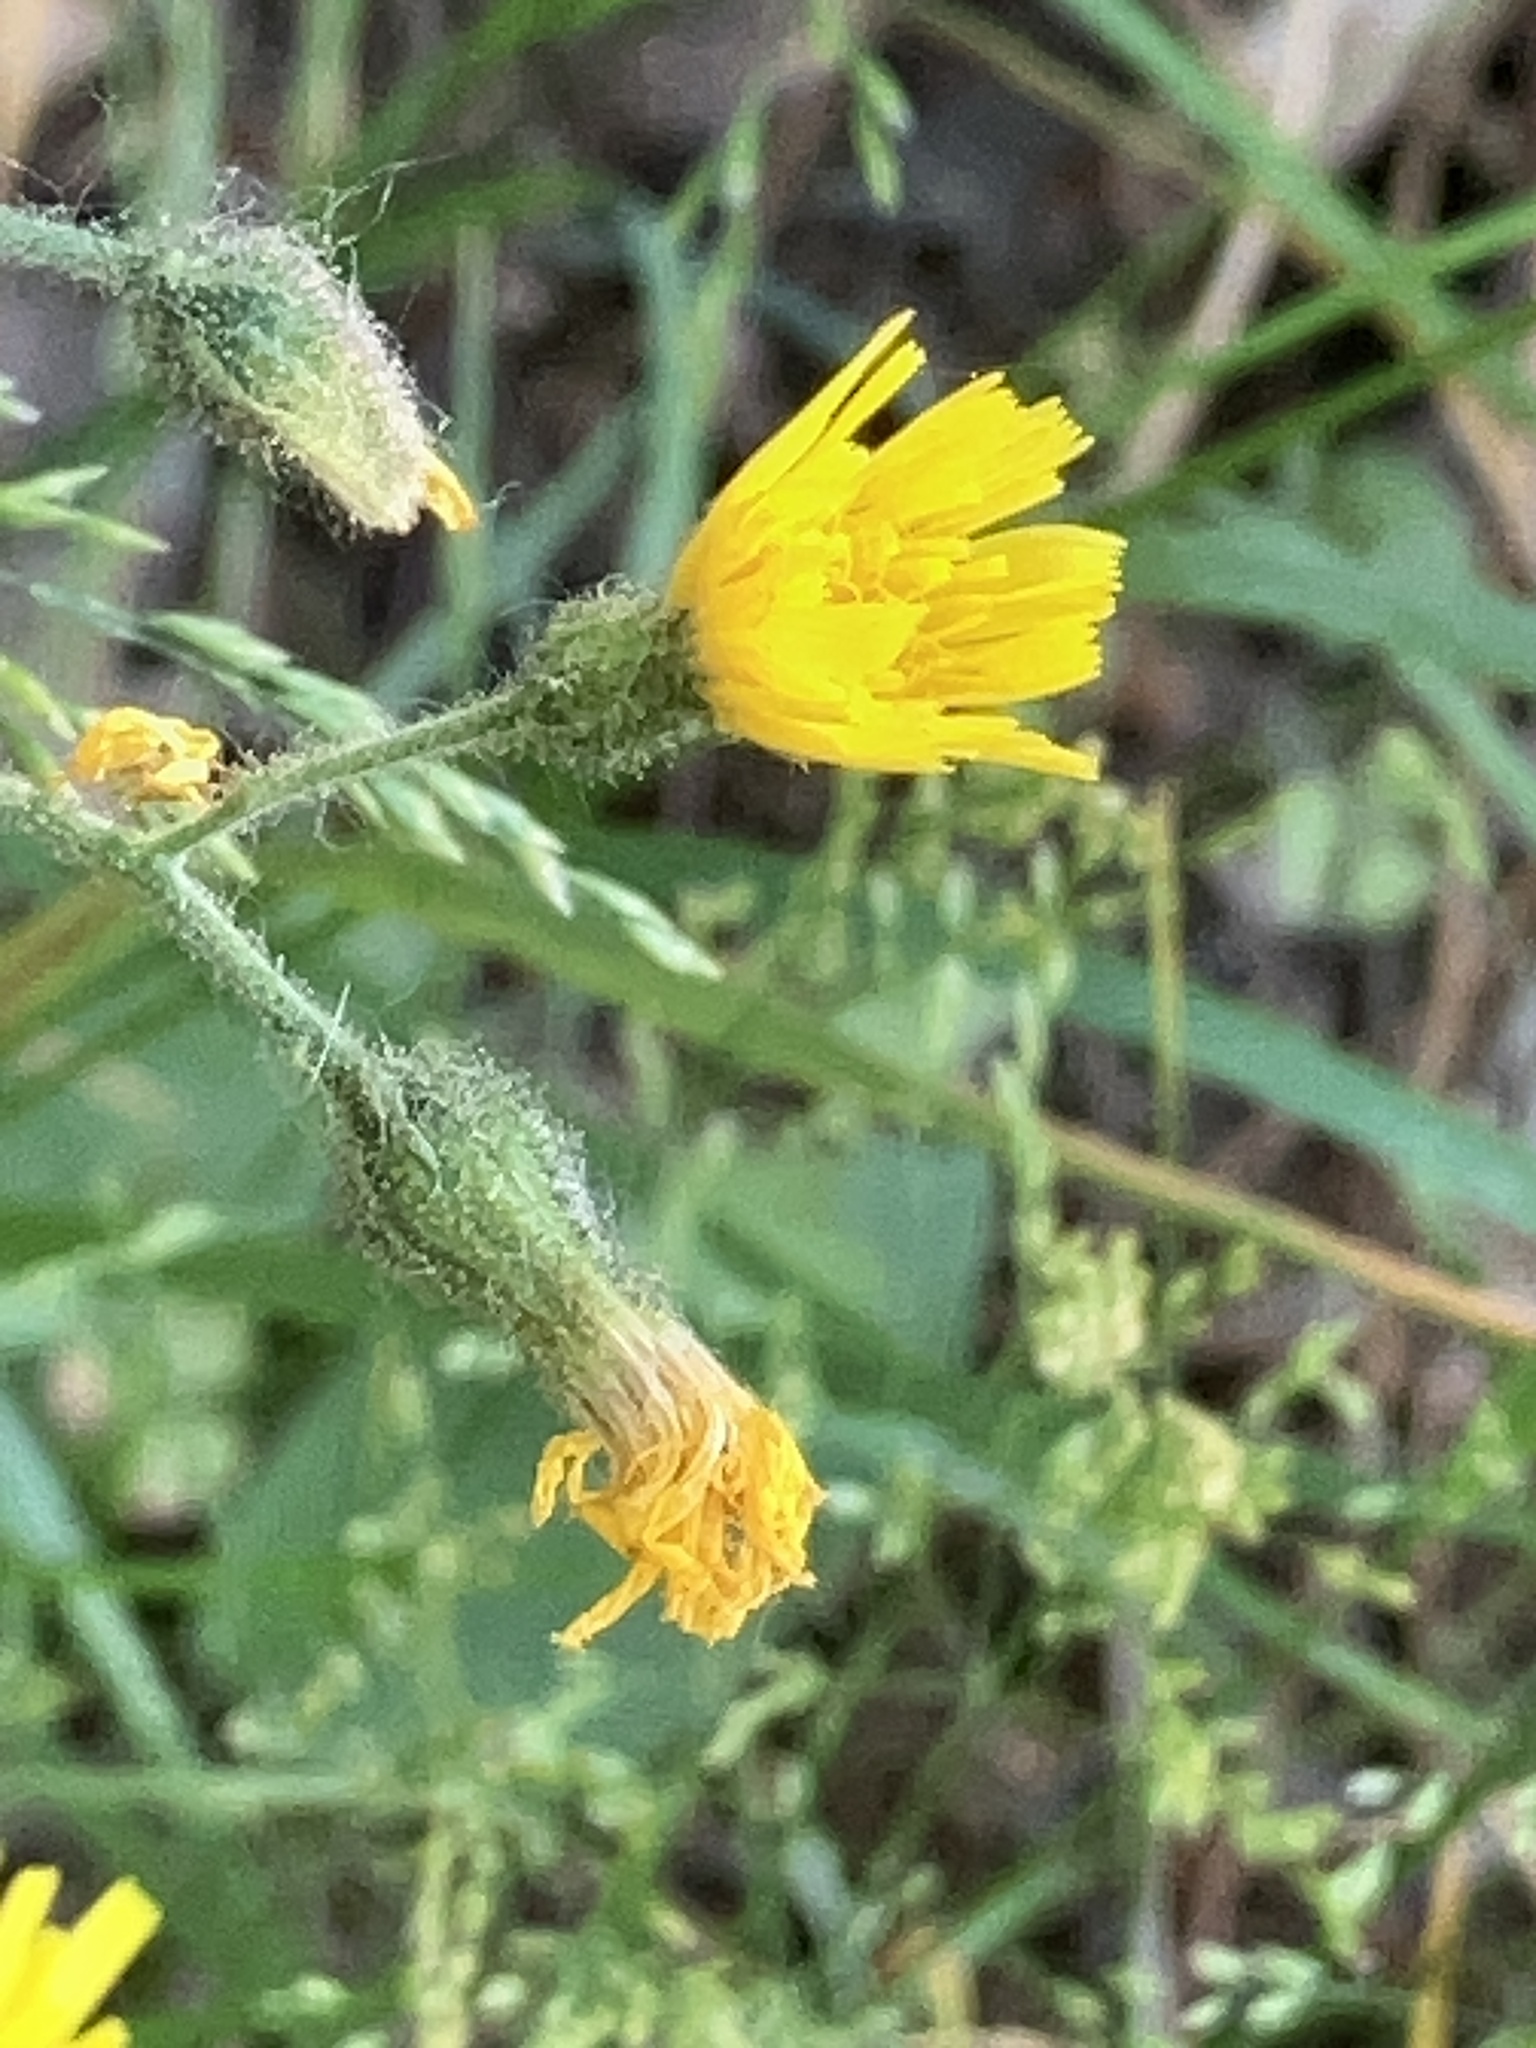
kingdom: Plantae
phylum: Tracheophyta
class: Magnoliopsida
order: Asterales
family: Asteraceae
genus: Hieracium
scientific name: Hieracium murorum
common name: Wall hawkweed
